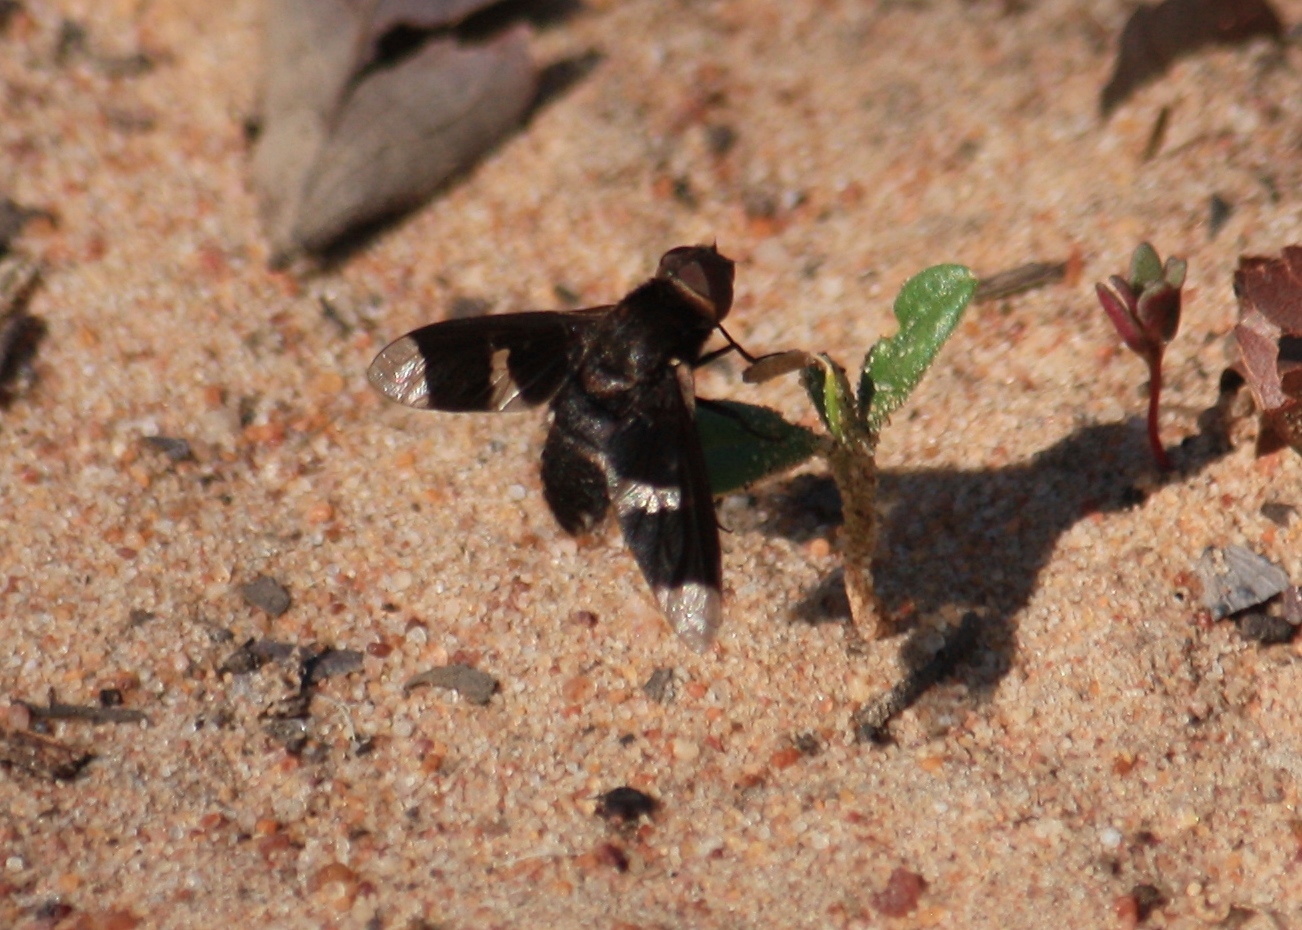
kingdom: Animalia
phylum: Arthropoda
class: Insecta
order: Diptera
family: Bombyliidae
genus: Exoprosopa
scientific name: Exoprosopa praefica
